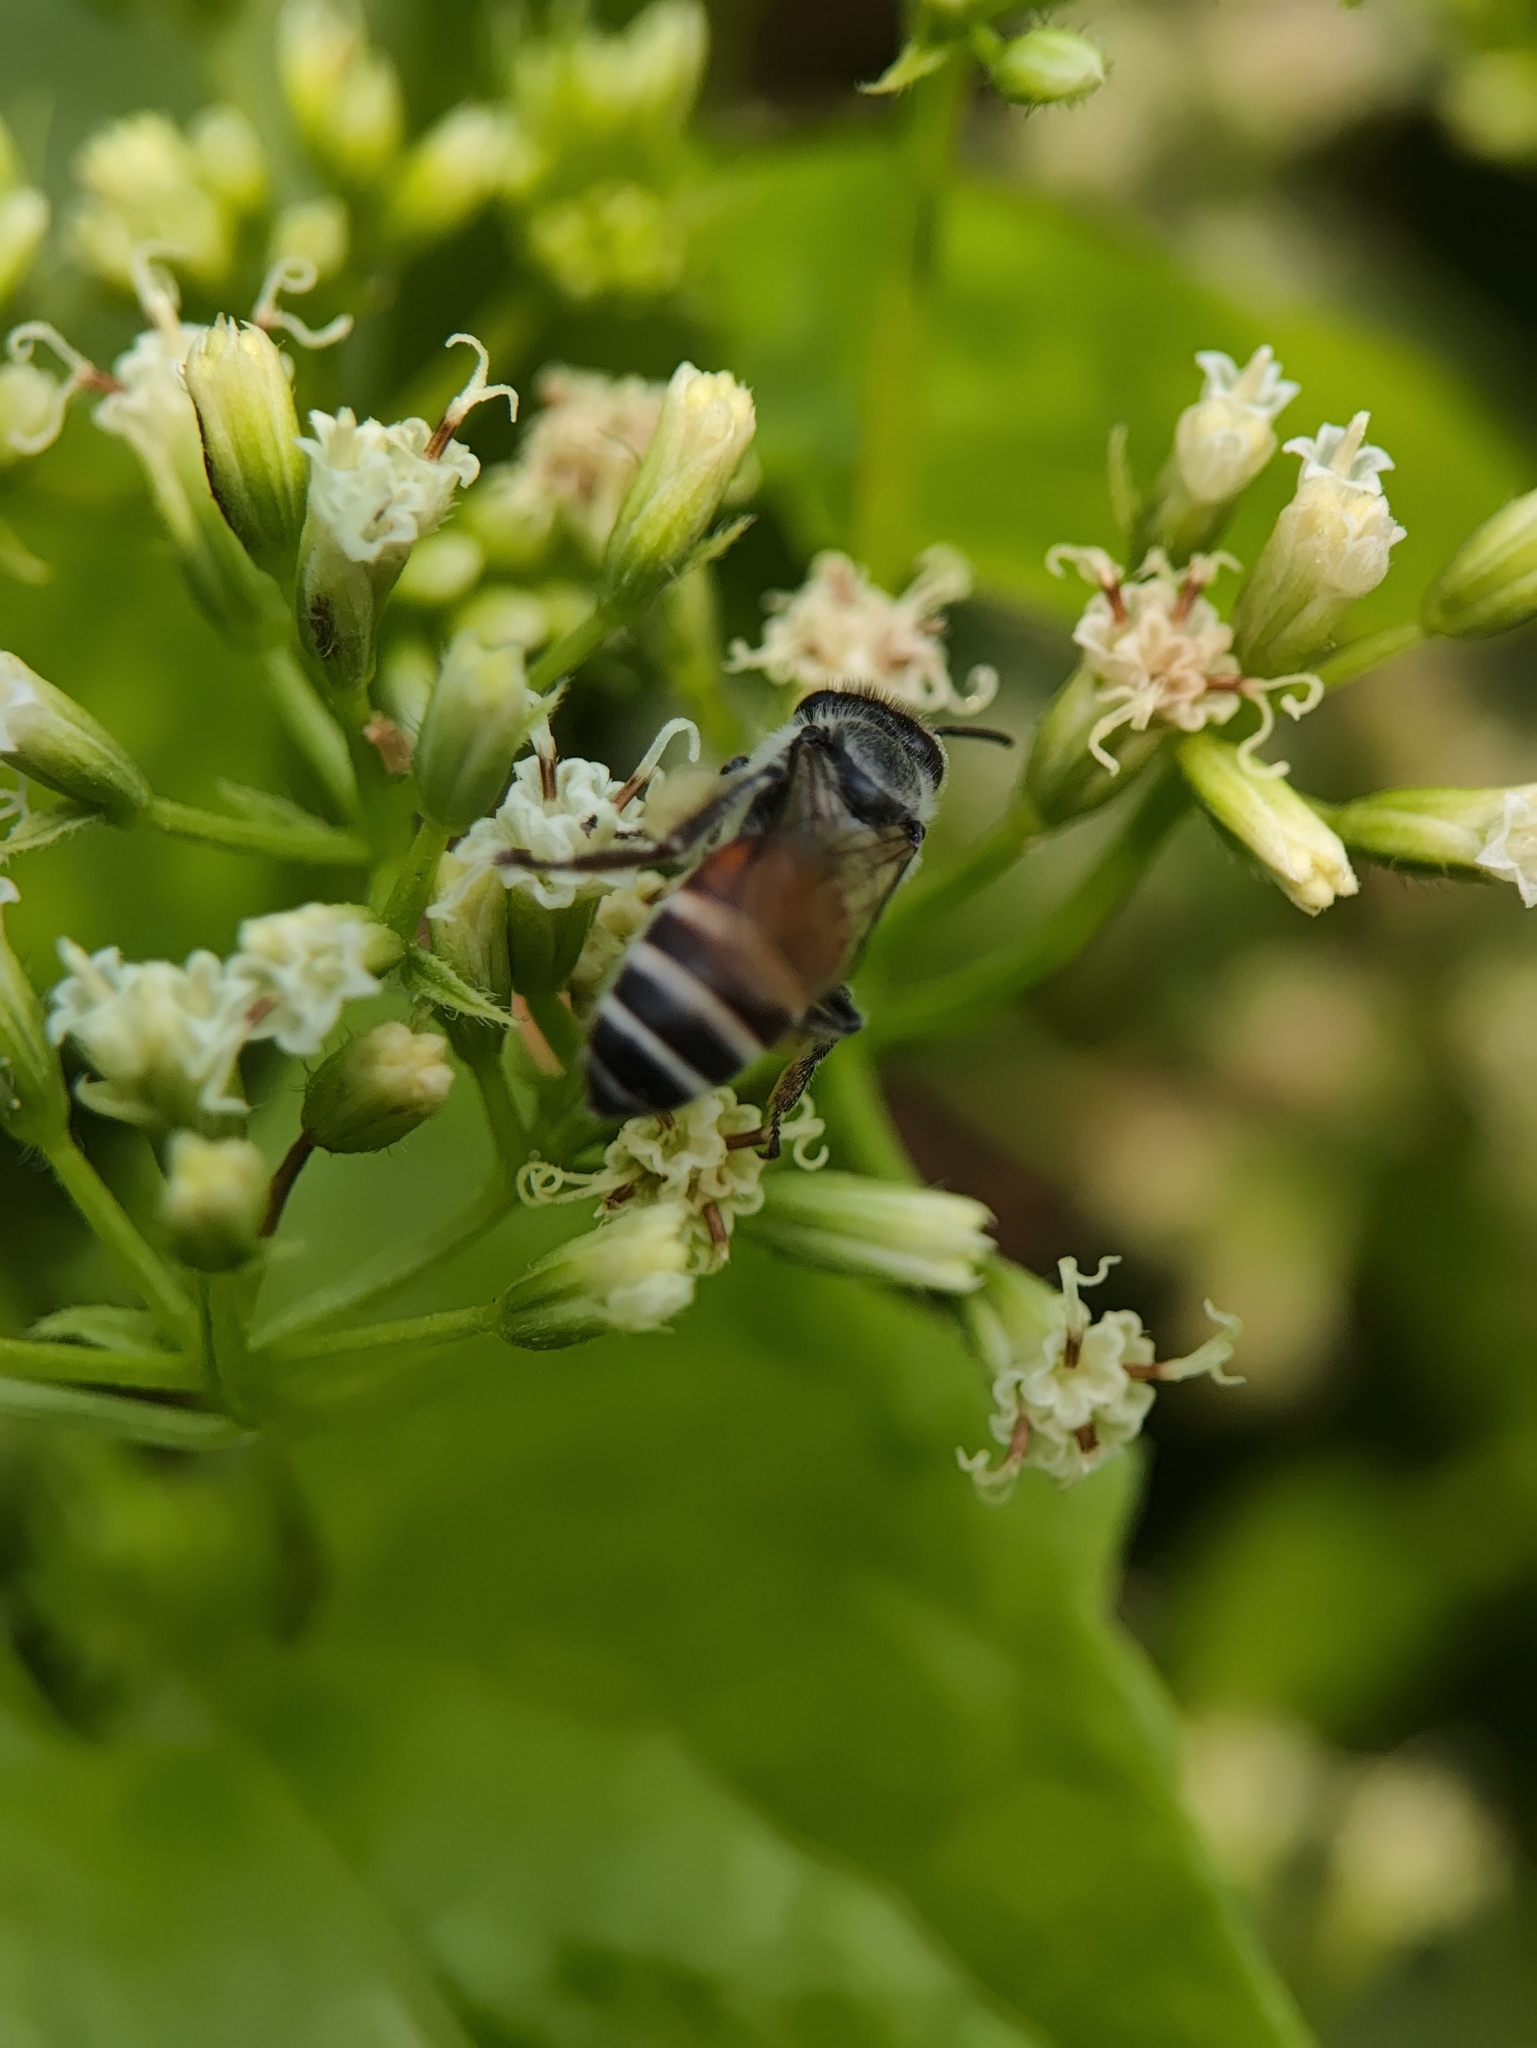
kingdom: Animalia
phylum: Arthropoda
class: Insecta
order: Hymenoptera
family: Apidae
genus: Apis
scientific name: Apis florea
